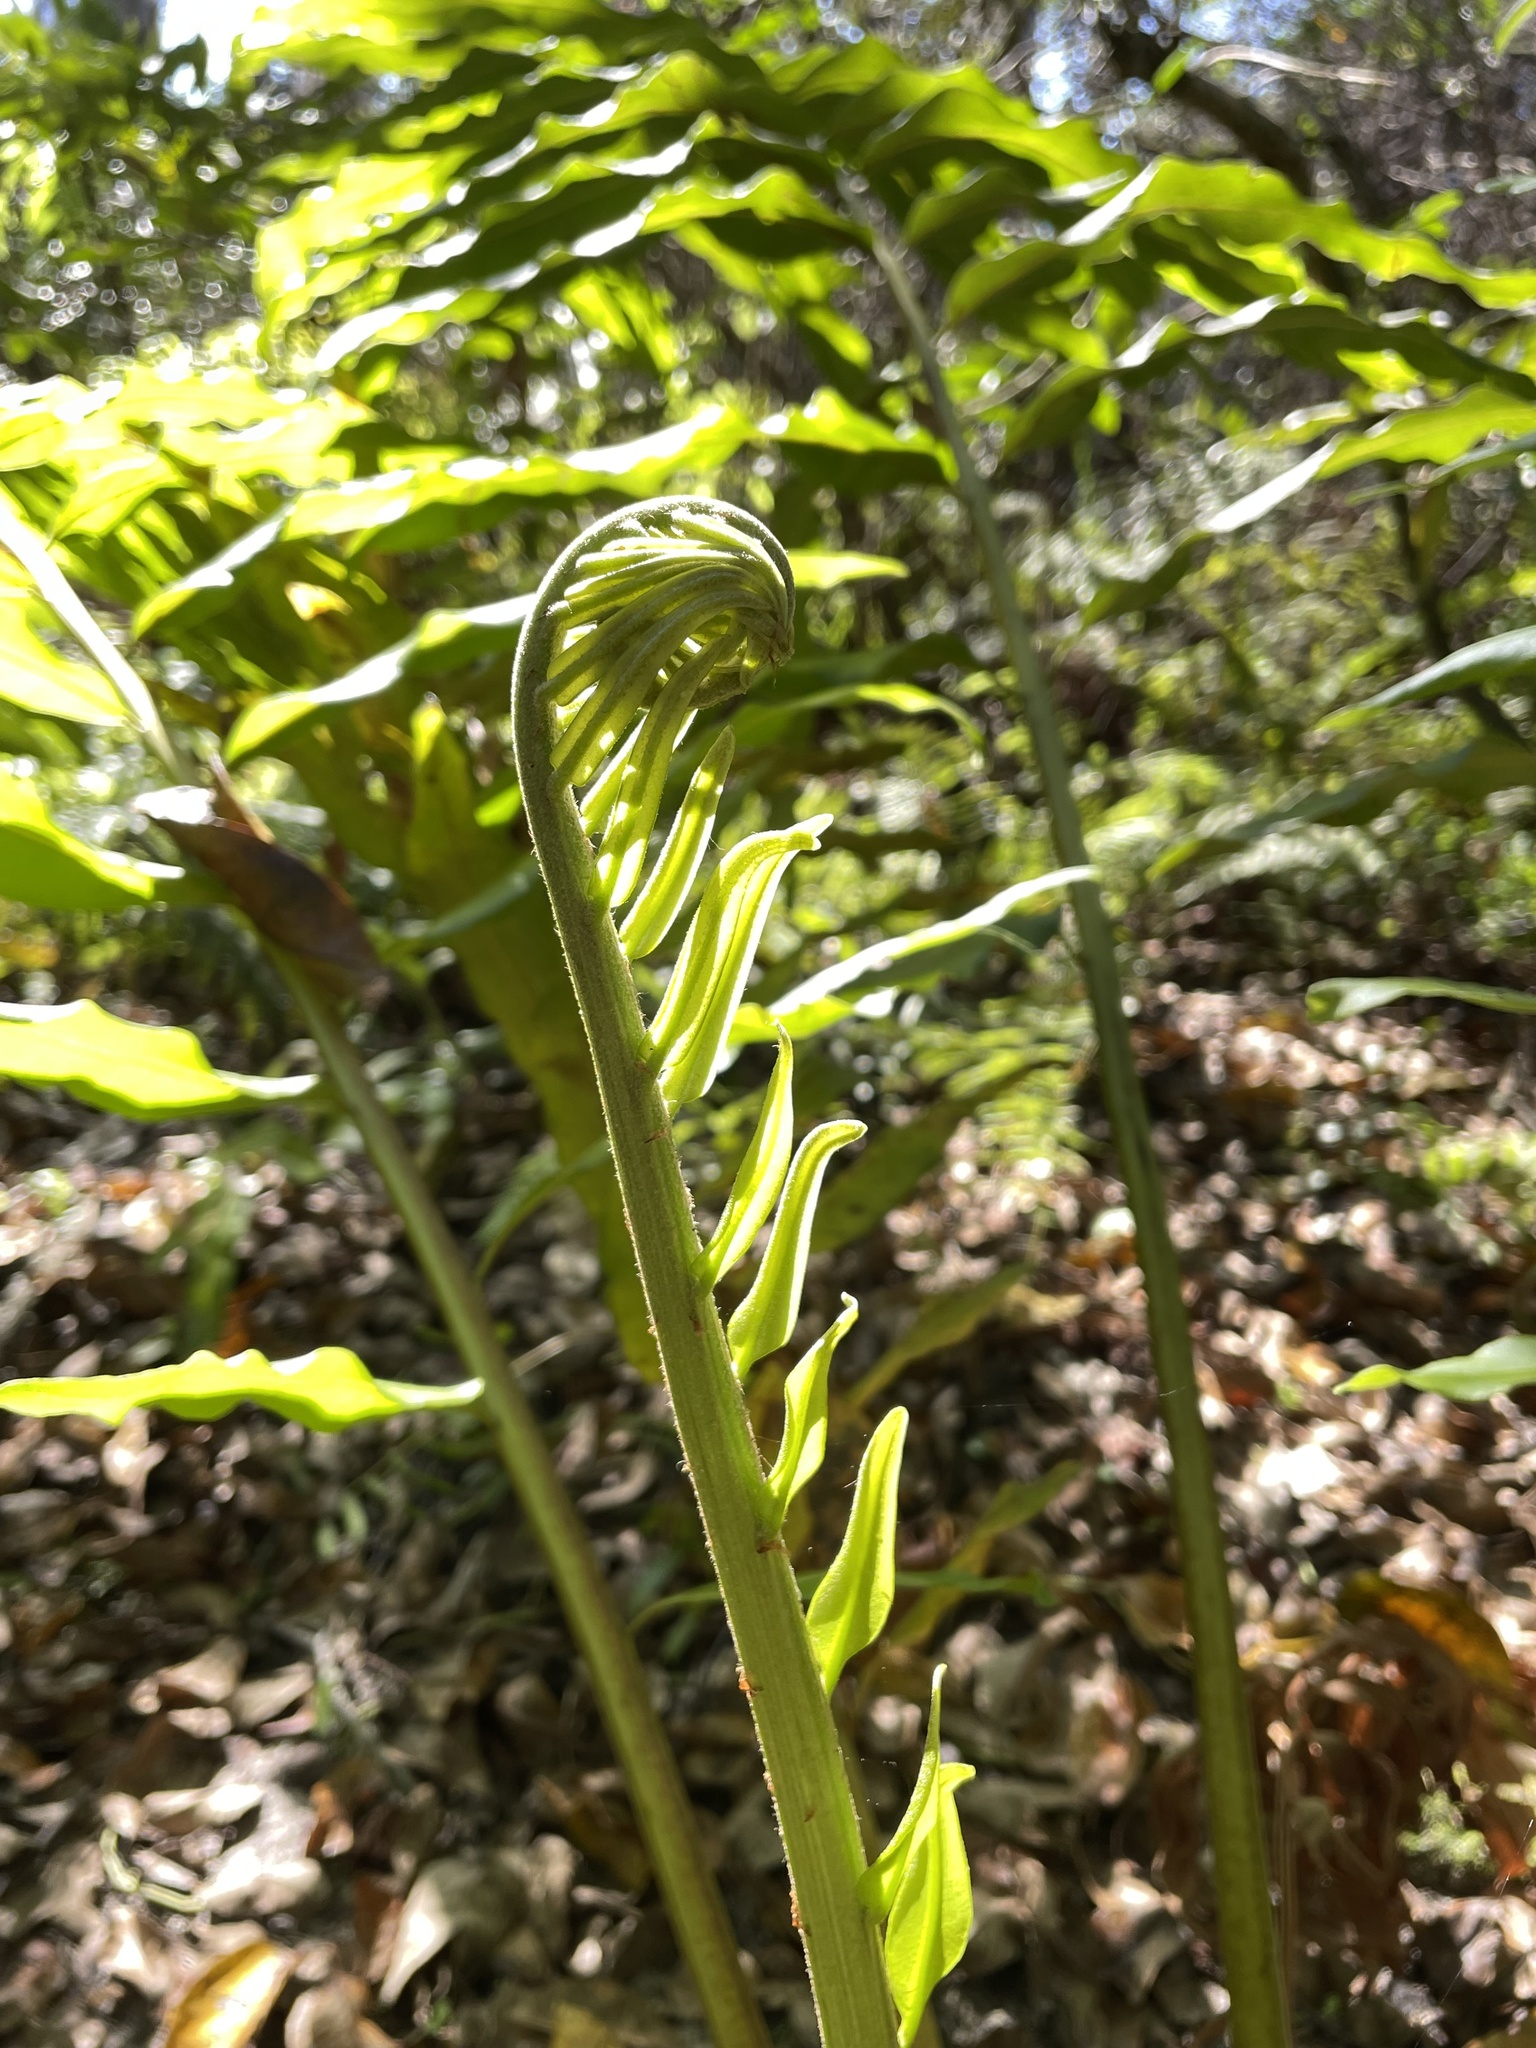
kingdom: Plantae
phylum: Tracheophyta
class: Polypodiopsida
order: Polypodiales
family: Pteridaceae
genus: Acrostichum
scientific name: Acrostichum danaeifolium
